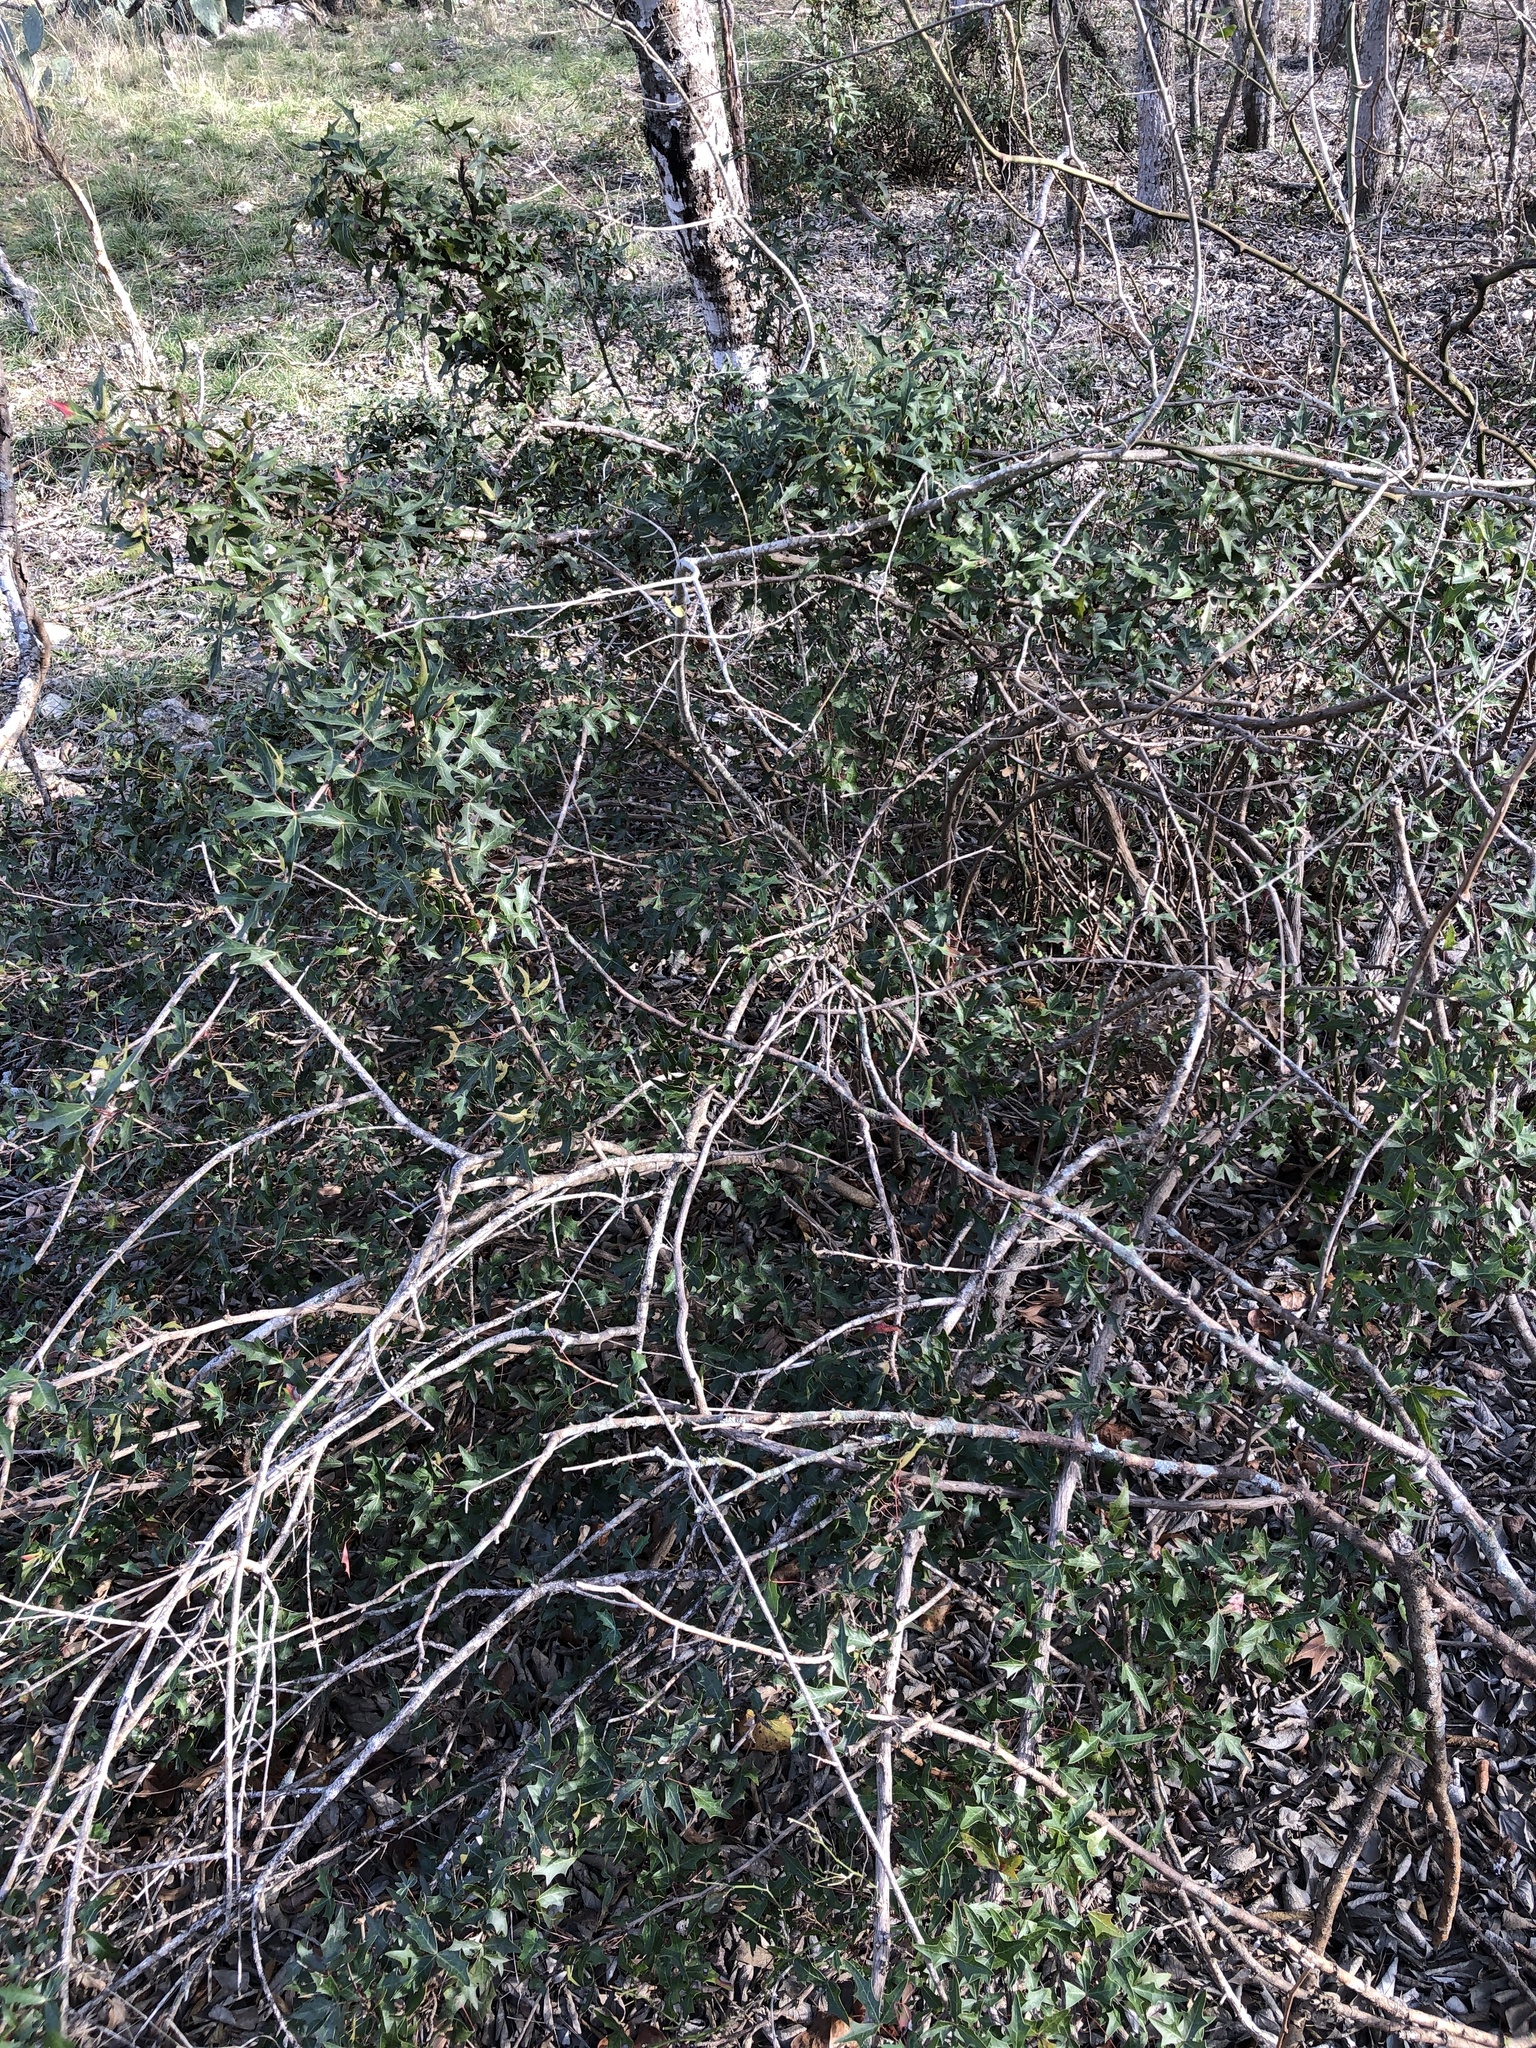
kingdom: Plantae
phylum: Tracheophyta
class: Magnoliopsida
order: Ranunculales
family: Berberidaceae
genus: Alloberberis
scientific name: Alloberberis trifoliolata
